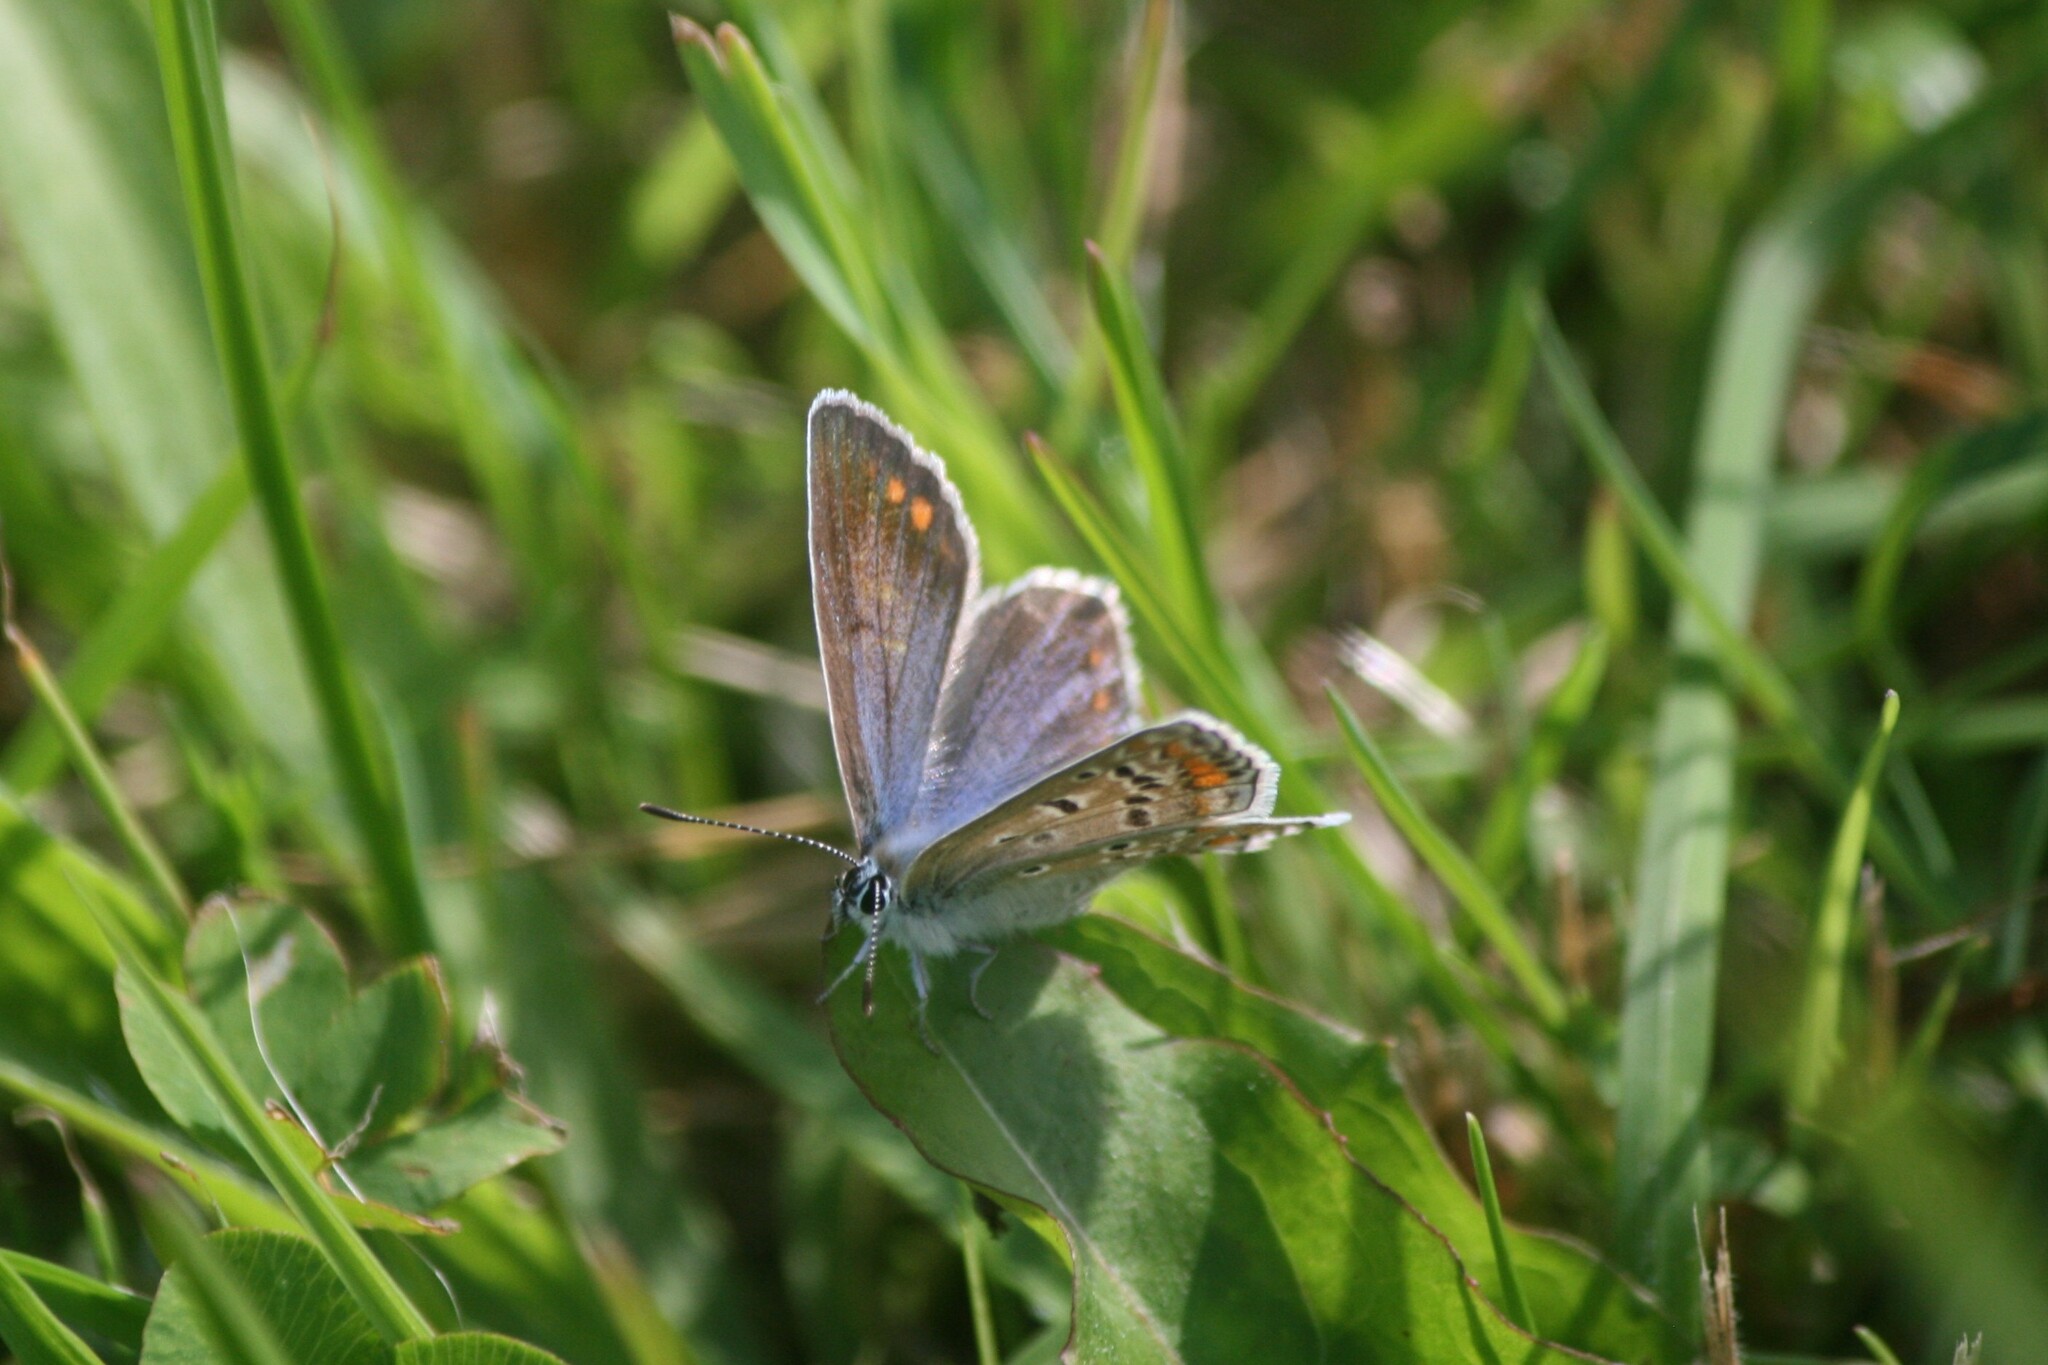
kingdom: Animalia
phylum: Arthropoda
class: Insecta
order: Lepidoptera
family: Lycaenidae
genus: Polyommatus
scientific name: Polyommatus icarus
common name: Common blue
